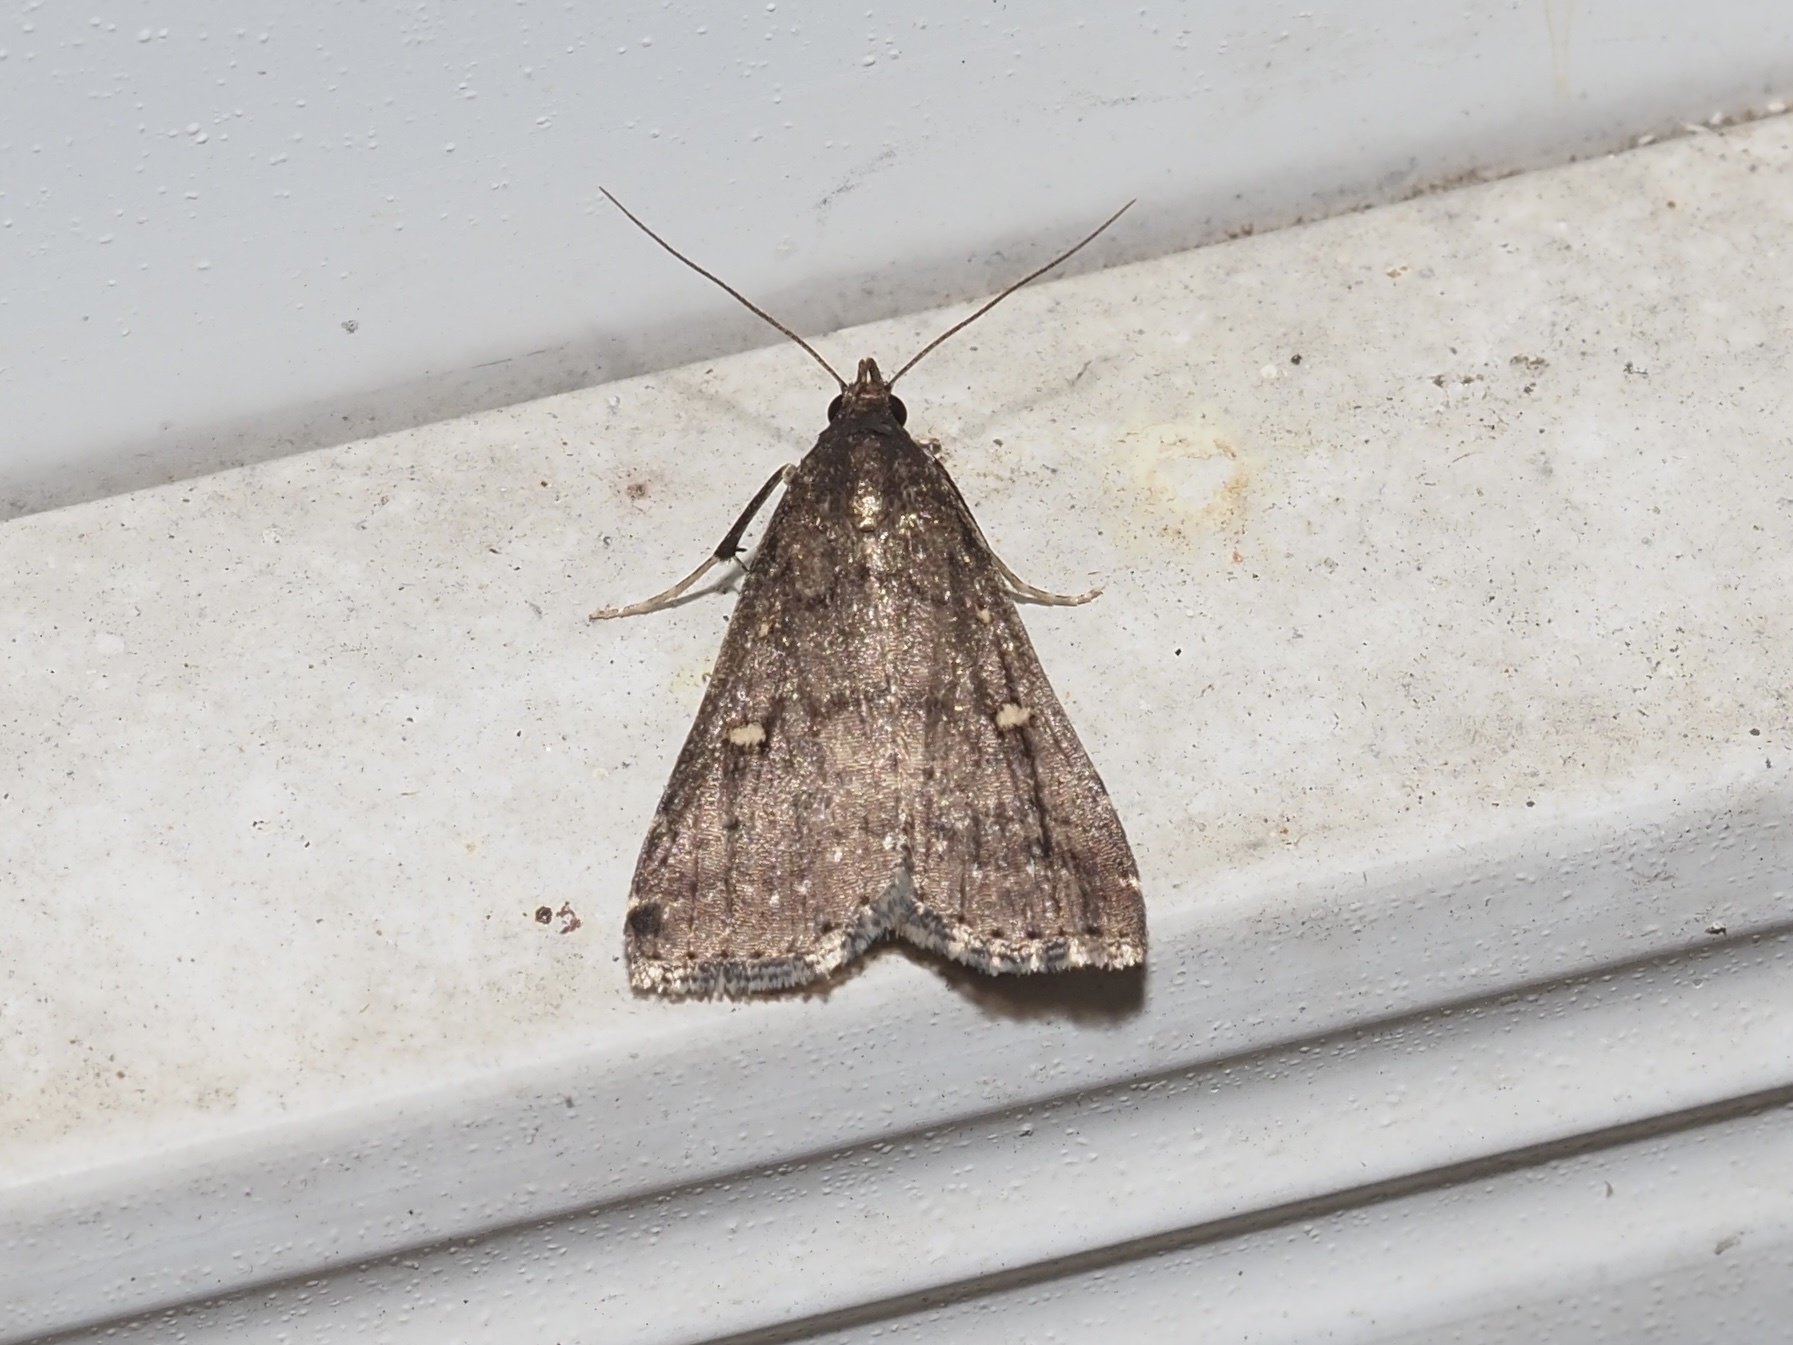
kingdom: Animalia
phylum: Arthropoda
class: Insecta
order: Lepidoptera
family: Erebidae
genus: Tetanolita
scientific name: Tetanolita mynesalis
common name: Smoky tetanolita moth
